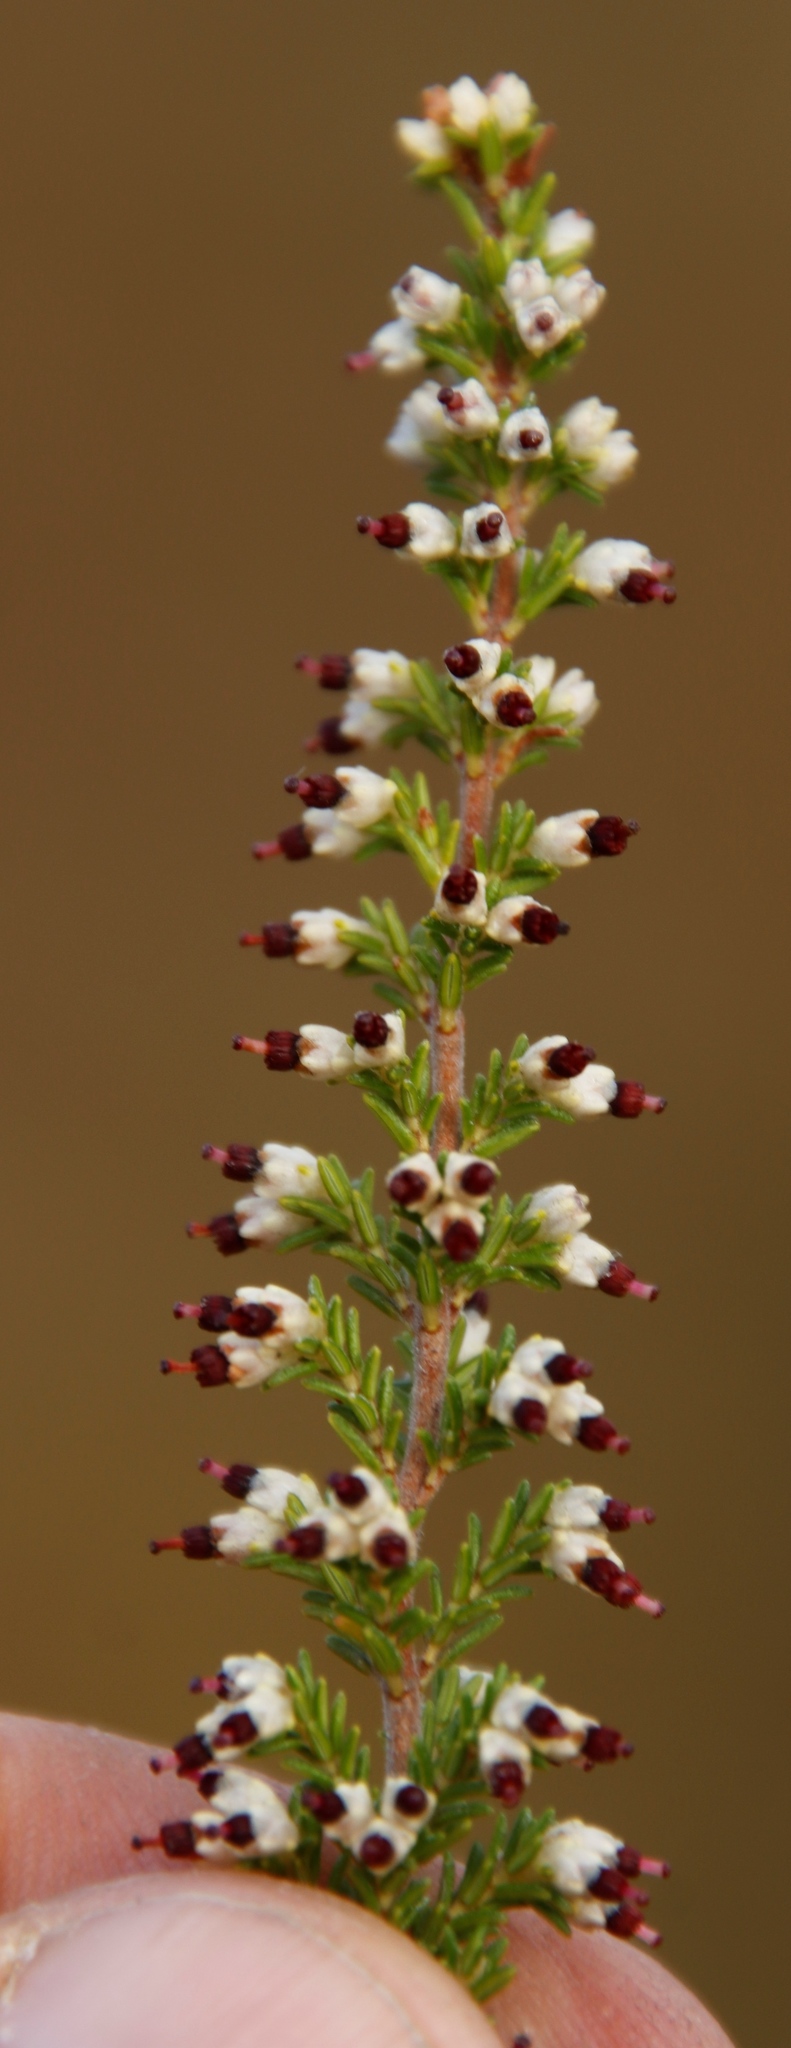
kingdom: Plantae
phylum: Tracheophyta
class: Magnoliopsida
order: Ericales
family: Ericaceae
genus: Erica
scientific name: Erica lasciva
